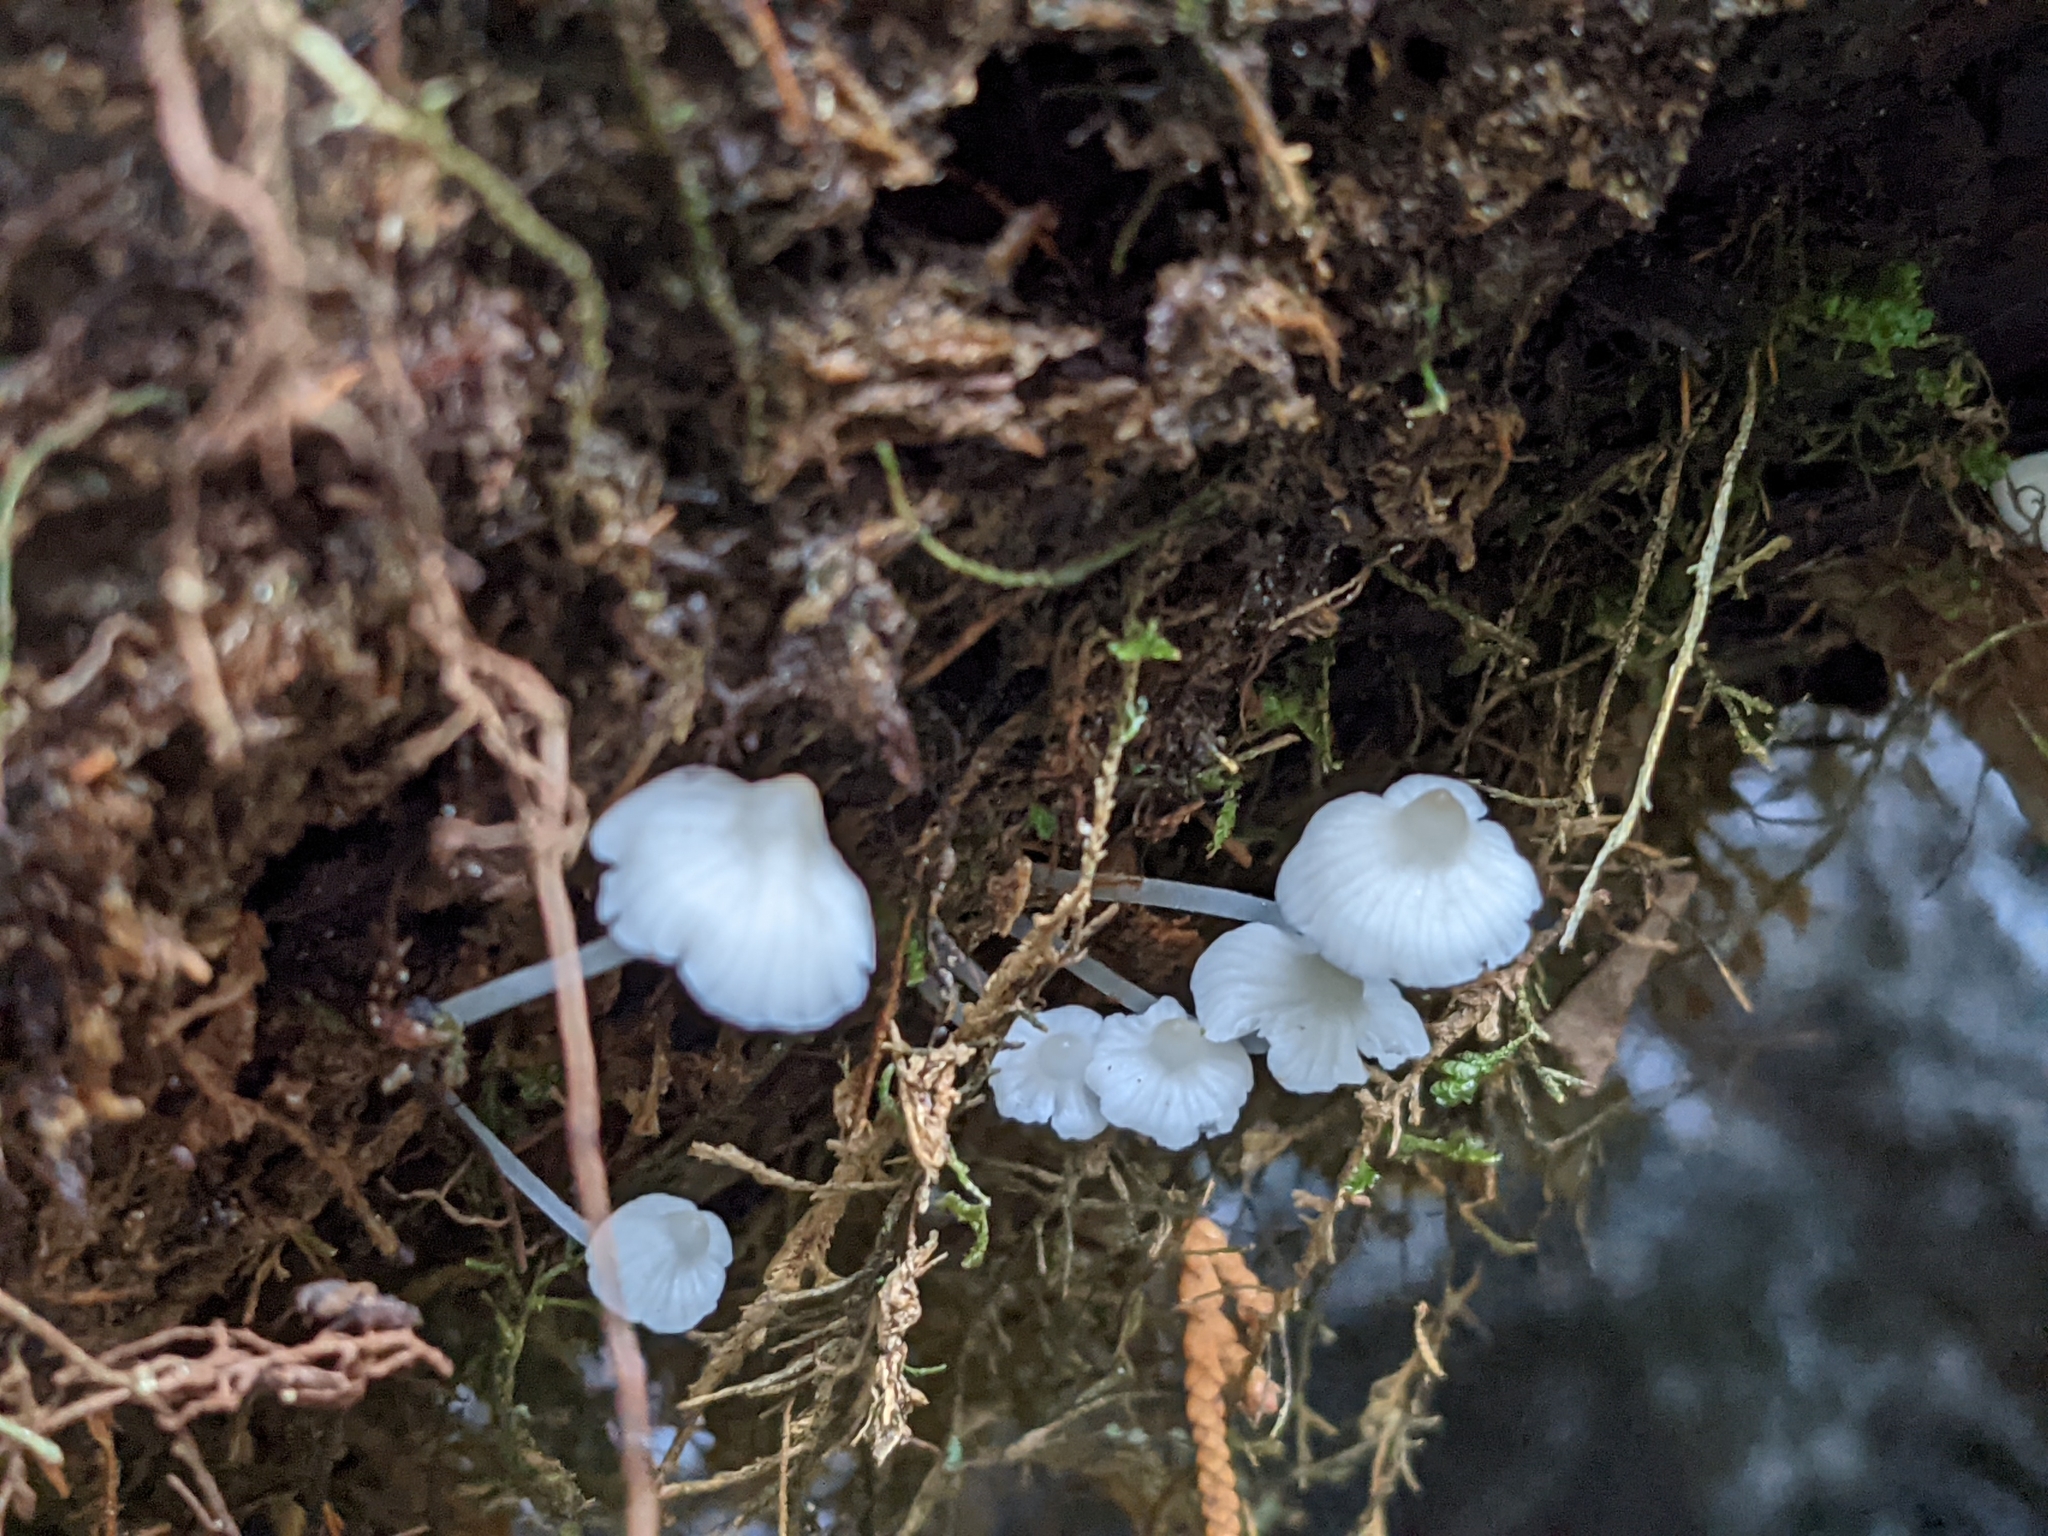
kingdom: Fungi
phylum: Basidiomycota
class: Agaricomycetes
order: Agaricales
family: Omphalotaceae
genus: Marasmiellus
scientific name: Marasmiellus candidus
